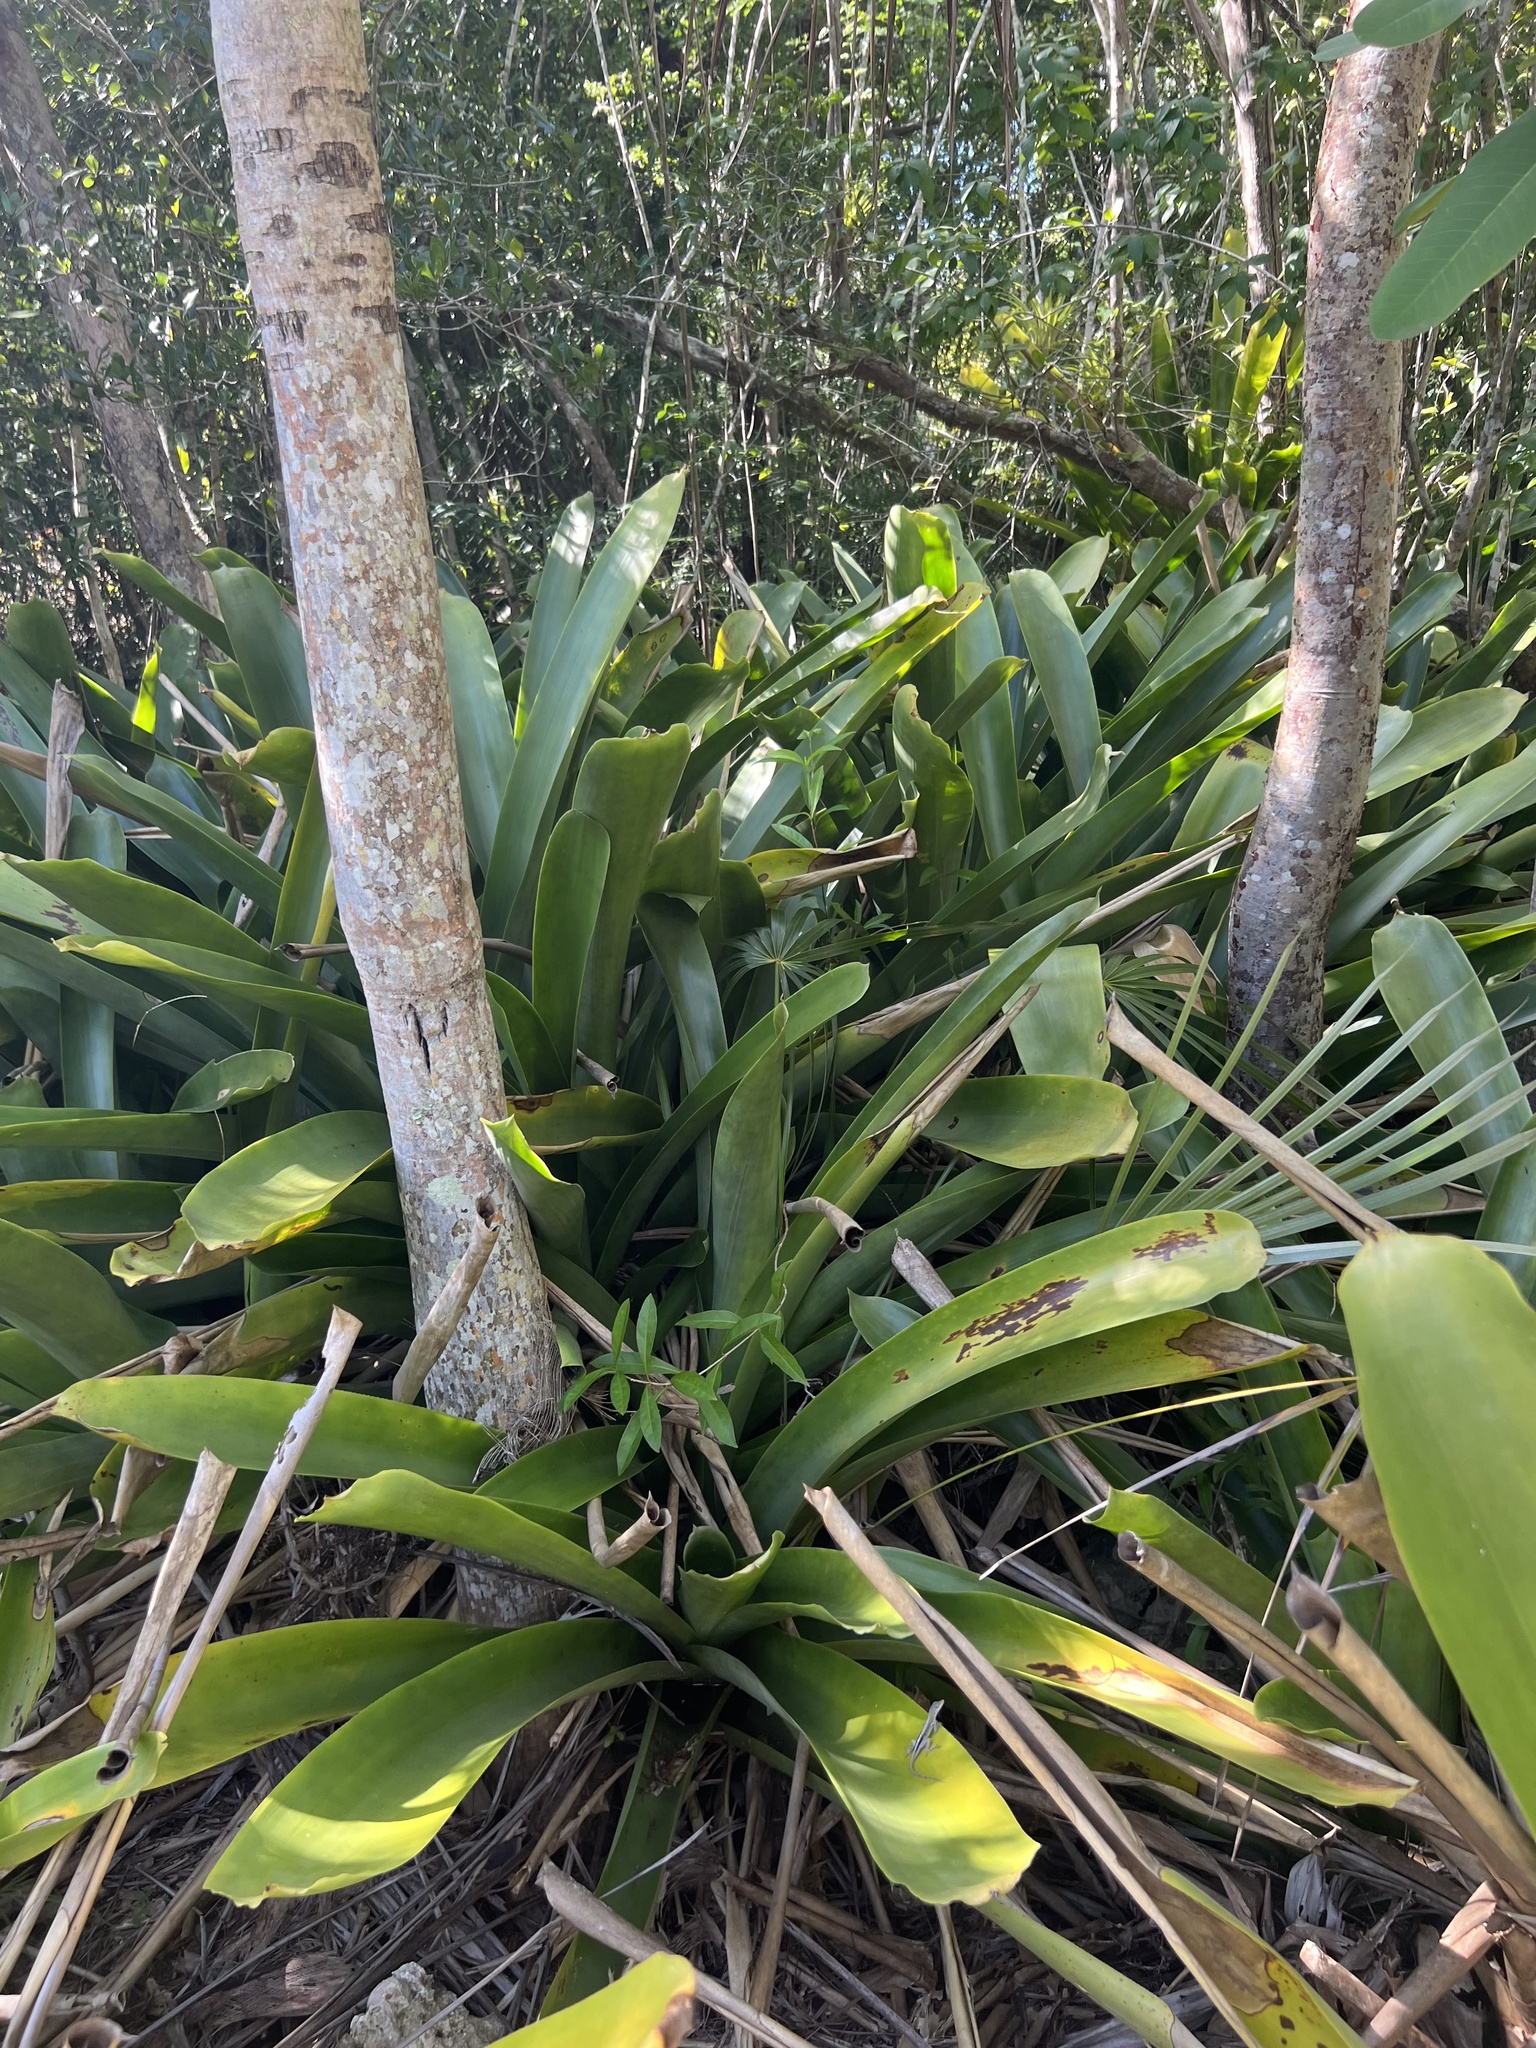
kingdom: Plantae
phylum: Tracheophyta
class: Liliopsida
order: Poales
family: Bromeliaceae
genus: Wittmackia
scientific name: Wittmackia caymanensis
